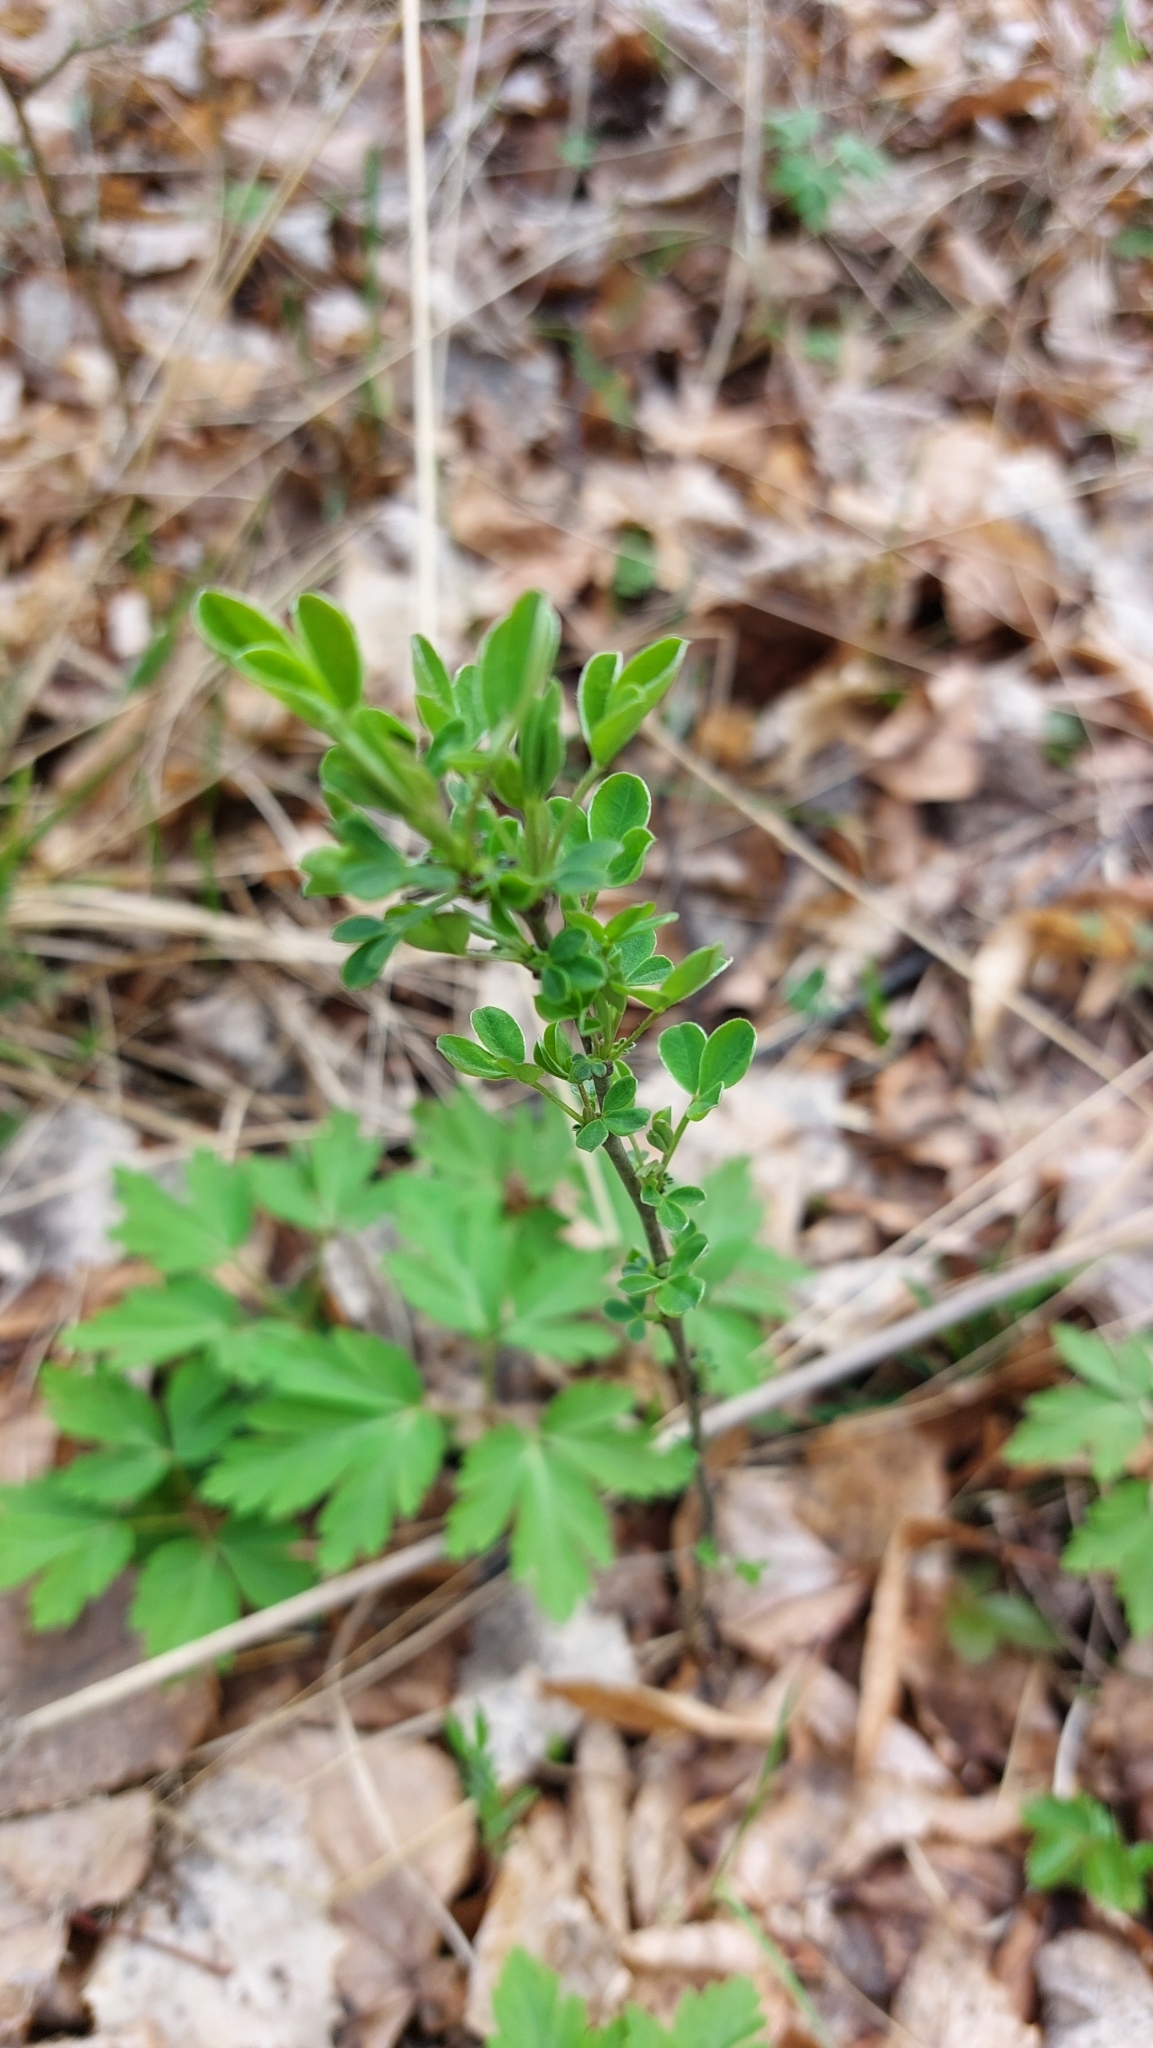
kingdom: Plantae
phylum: Tracheophyta
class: Magnoliopsida
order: Fabales
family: Fabaceae
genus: Chamaecytisus
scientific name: Chamaecytisus ruthenicus
